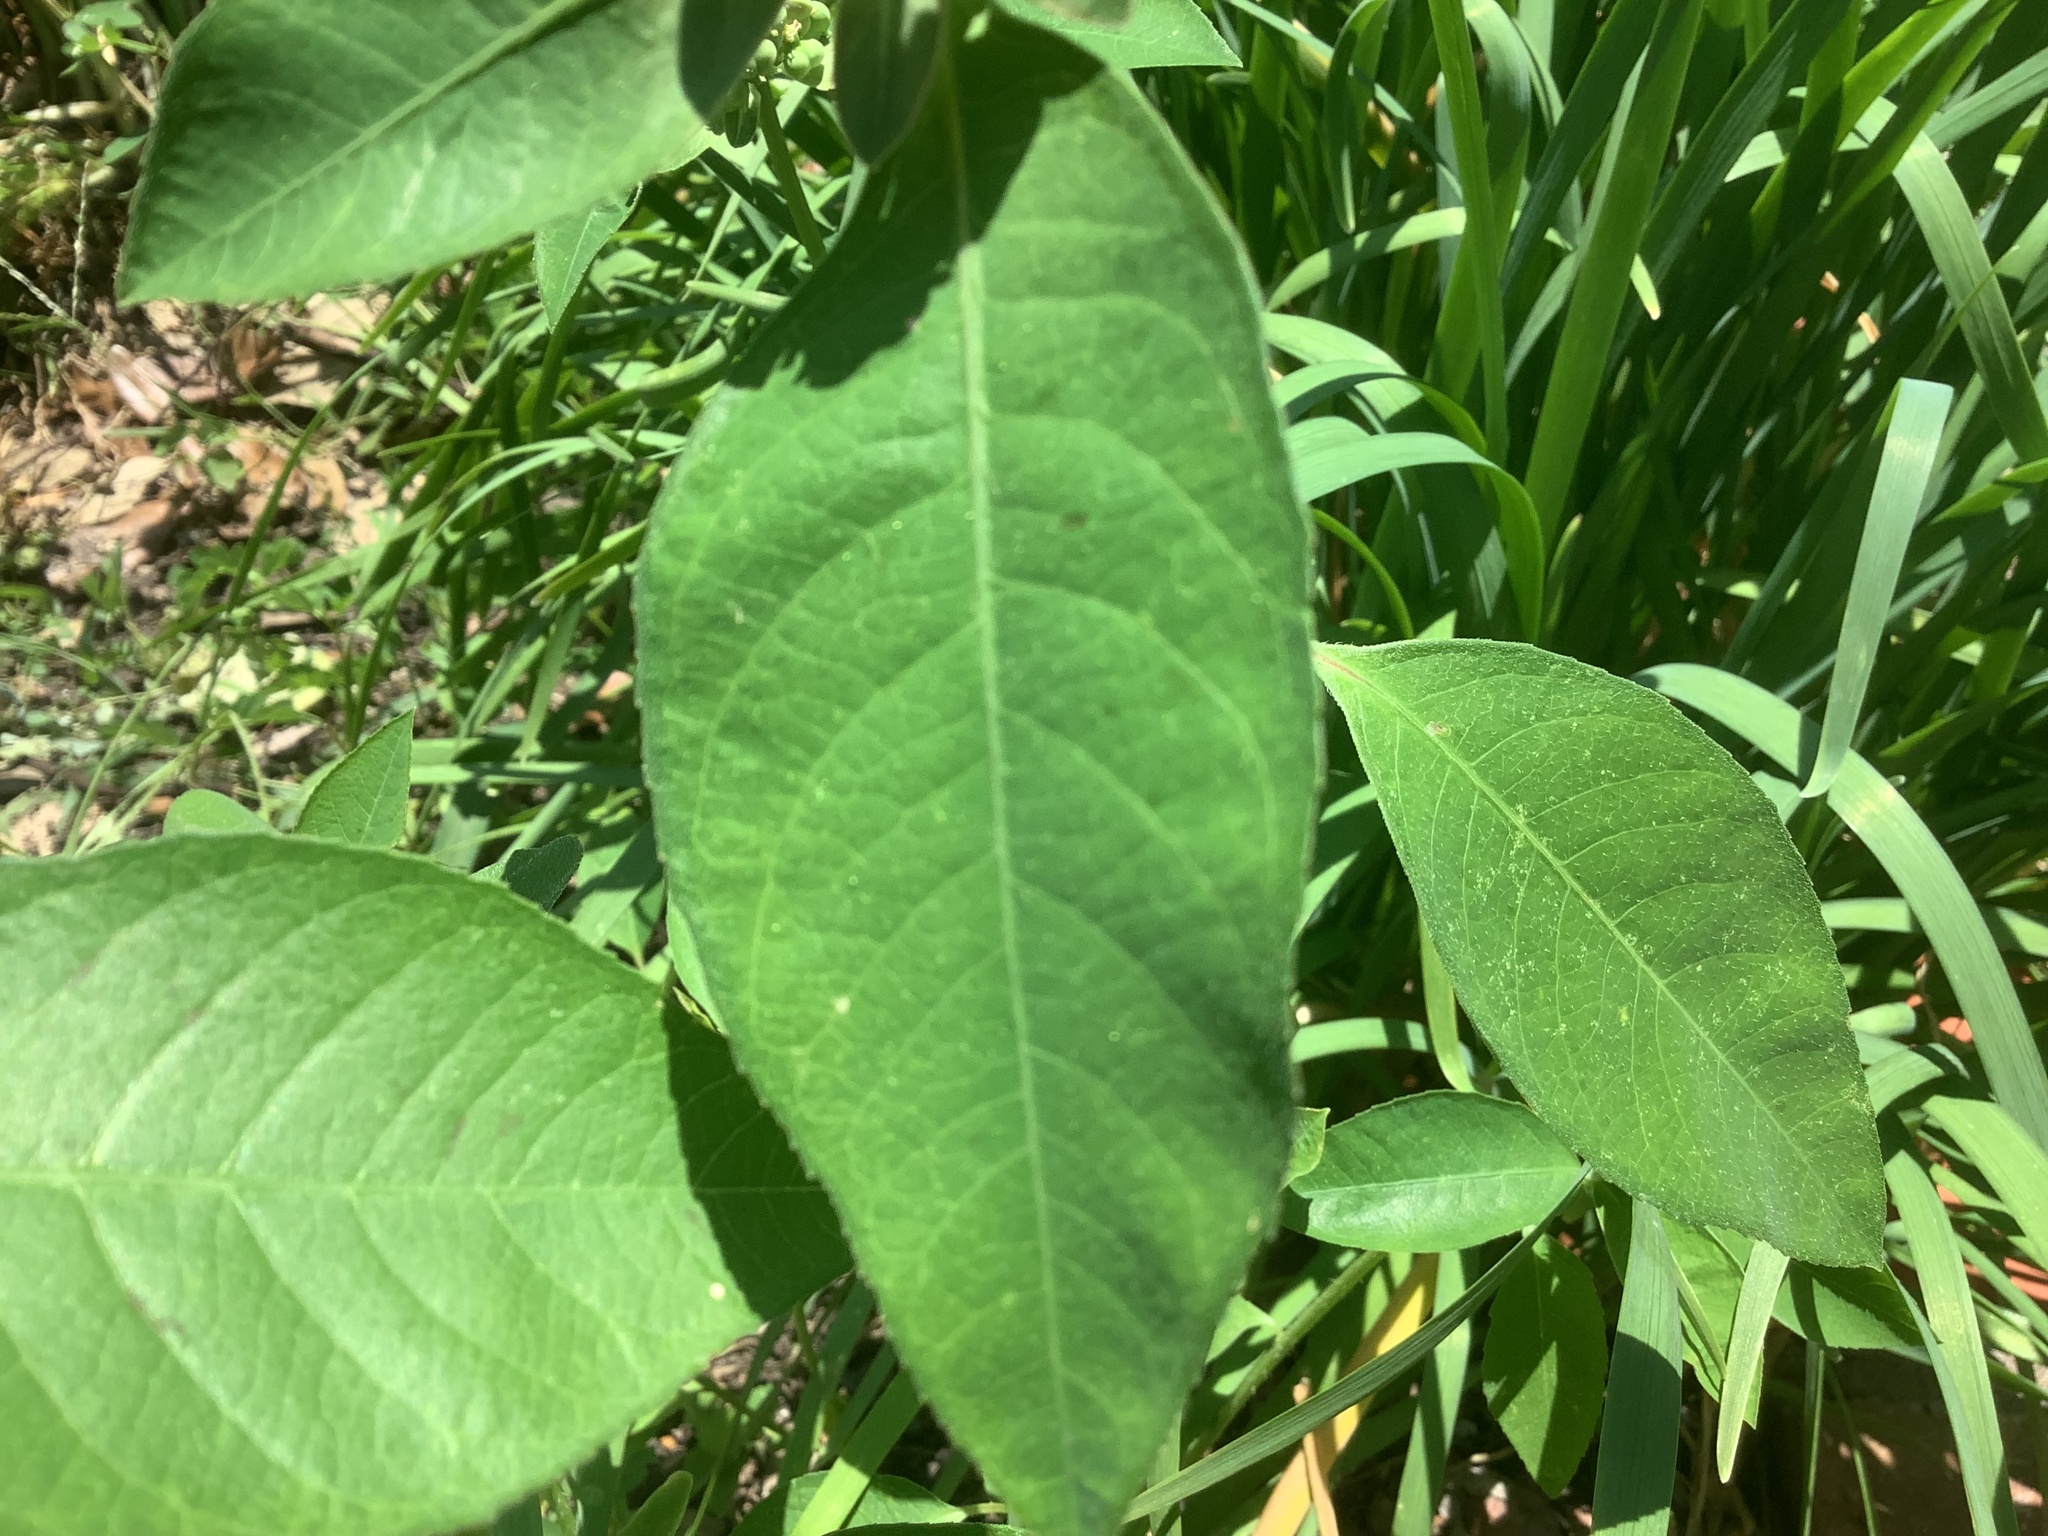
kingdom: Plantae
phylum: Tracheophyta
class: Magnoliopsida
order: Malpighiales
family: Euphorbiaceae
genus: Euphorbia
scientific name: Euphorbia heterophylla
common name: Mexican fireplant
